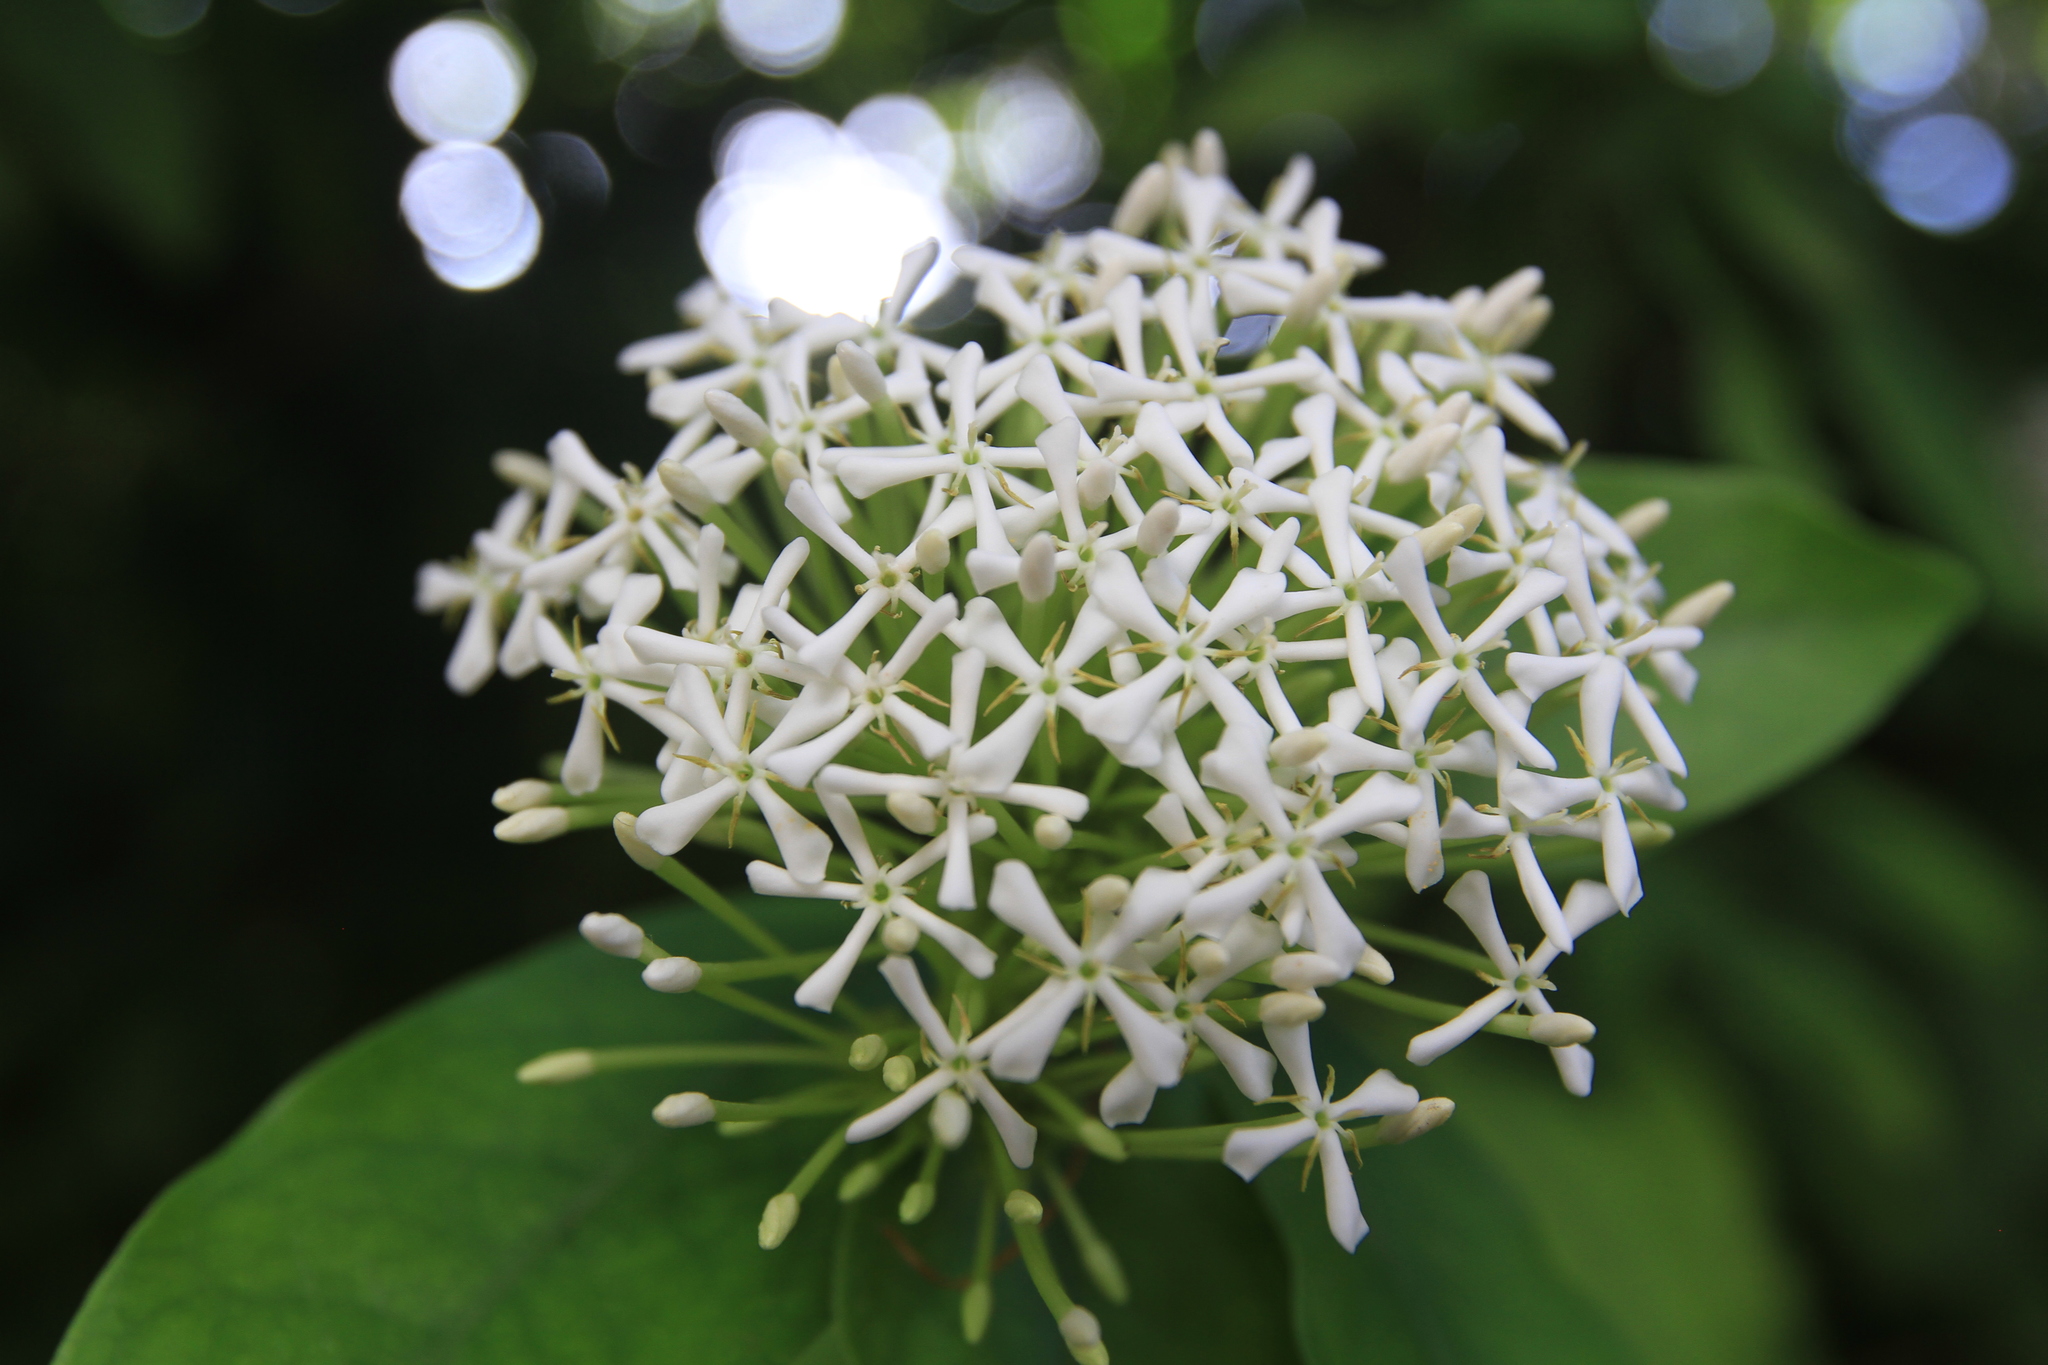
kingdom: Plantae
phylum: Tracheophyta
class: Magnoliopsida
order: Gentianales
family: Rubiaceae
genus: Ixora
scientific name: Ixora finlaysoniana
